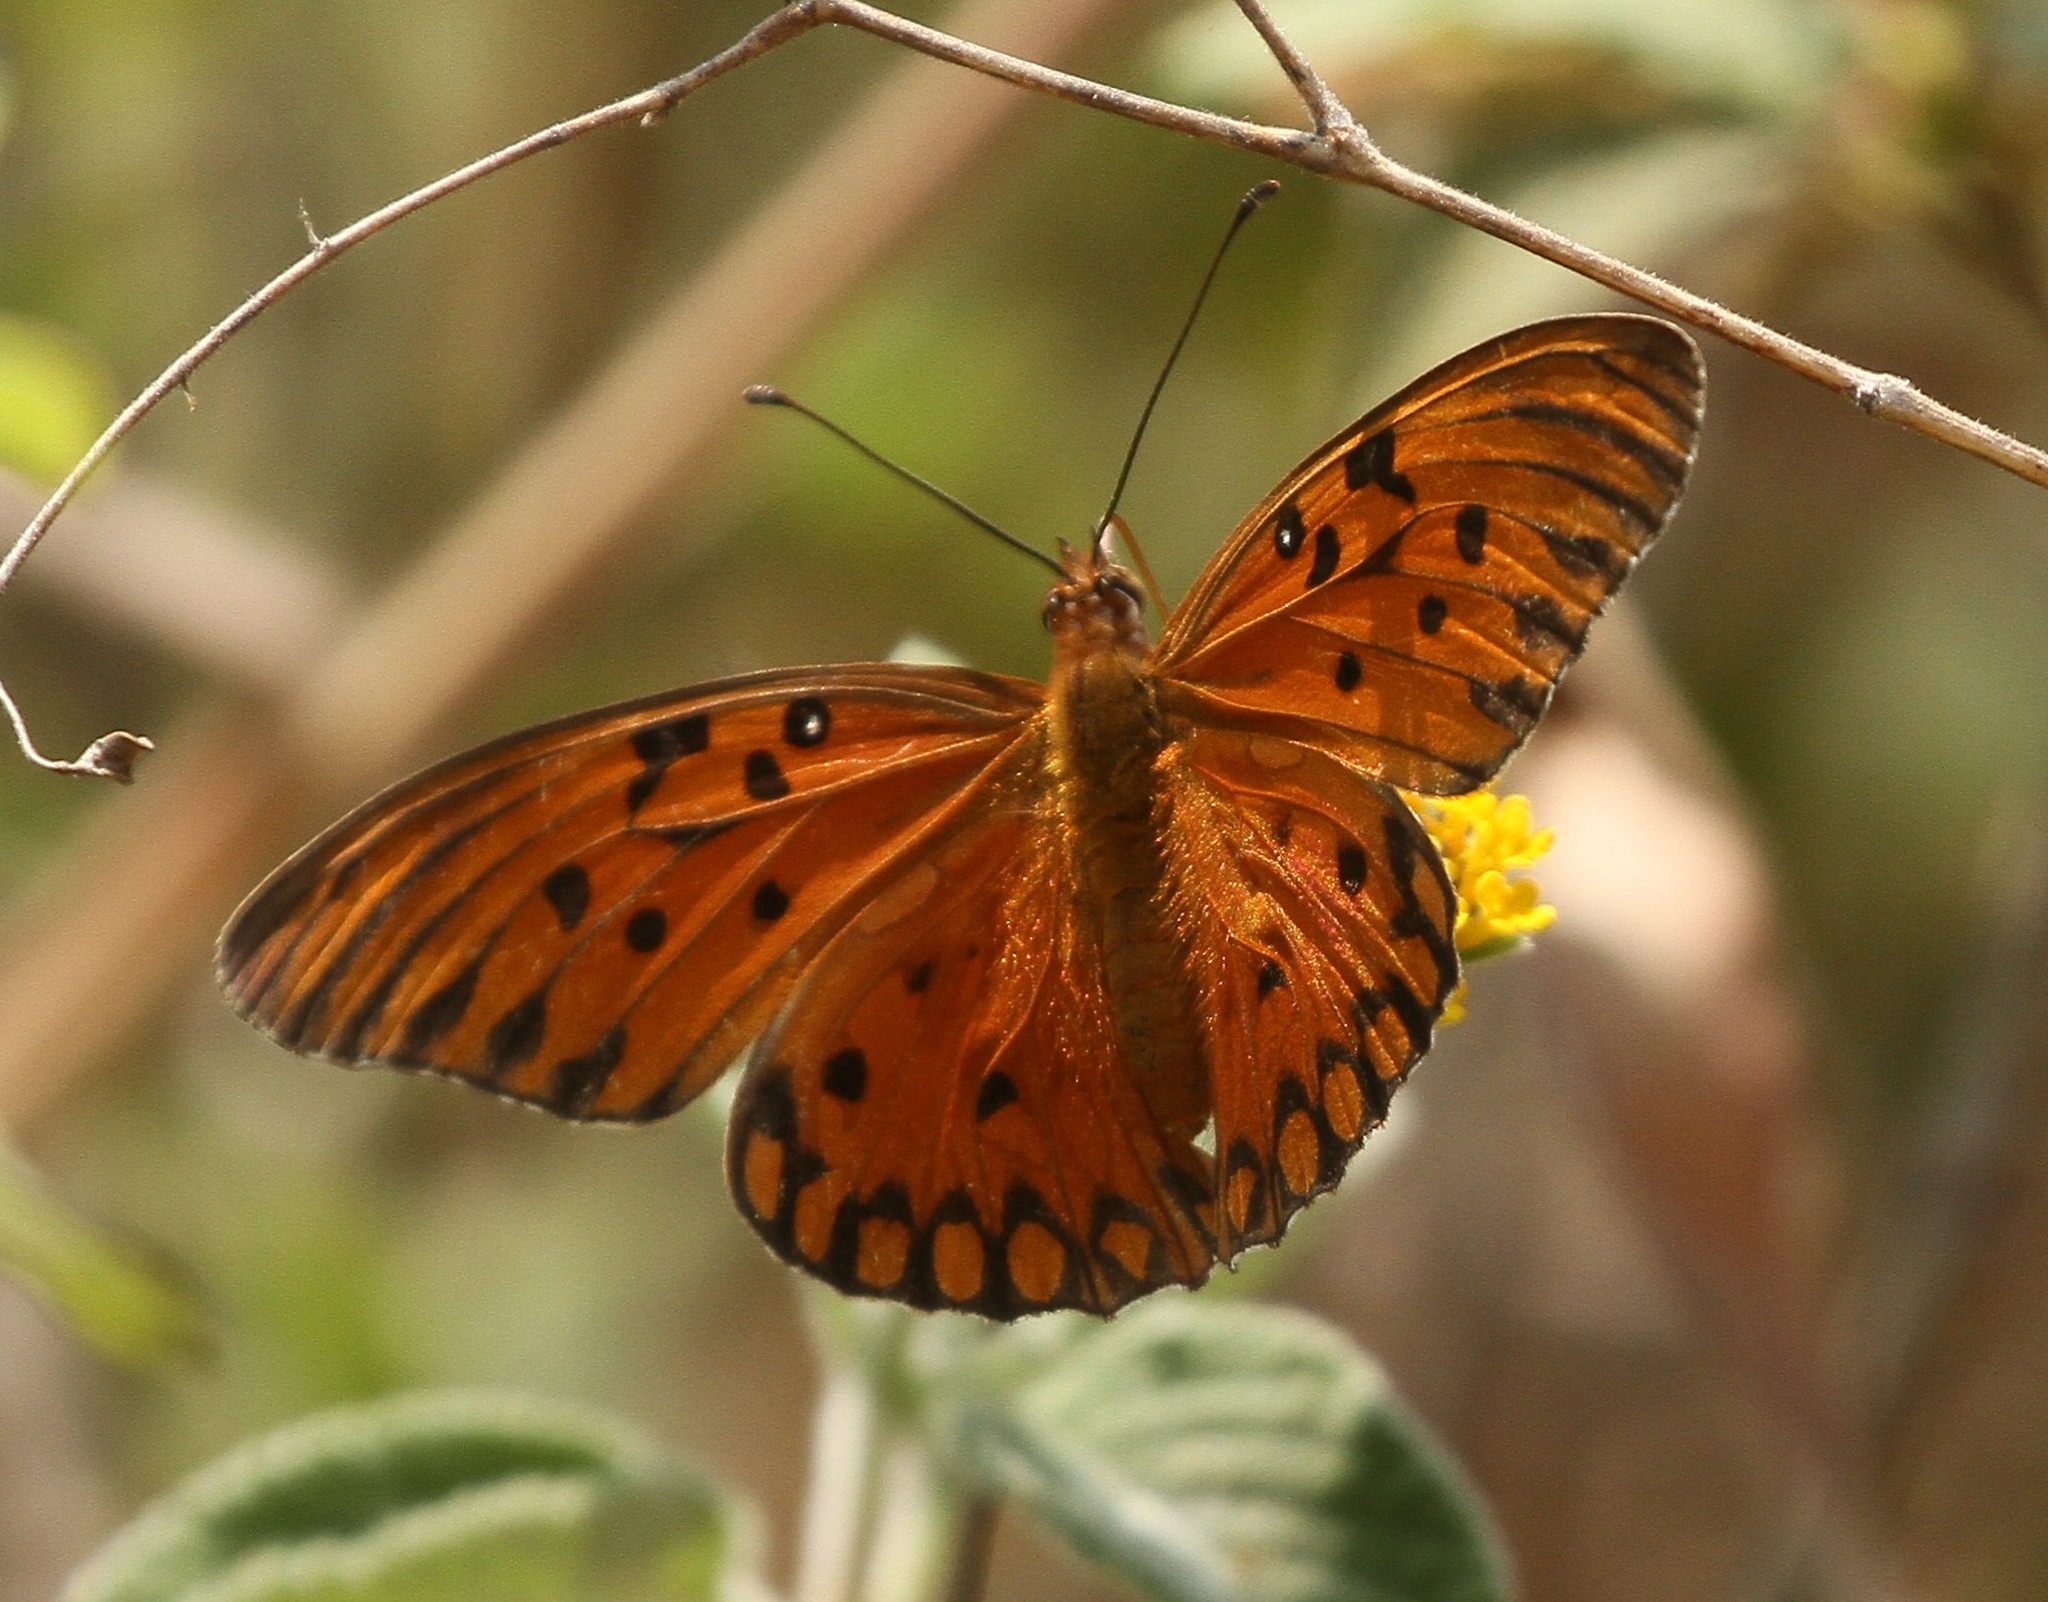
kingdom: Animalia
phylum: Arthropoda
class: Insecta
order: Lepidoptera
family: Nymphalidae
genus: Dione
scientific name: Dione vanillae
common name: Gulf fritillary
